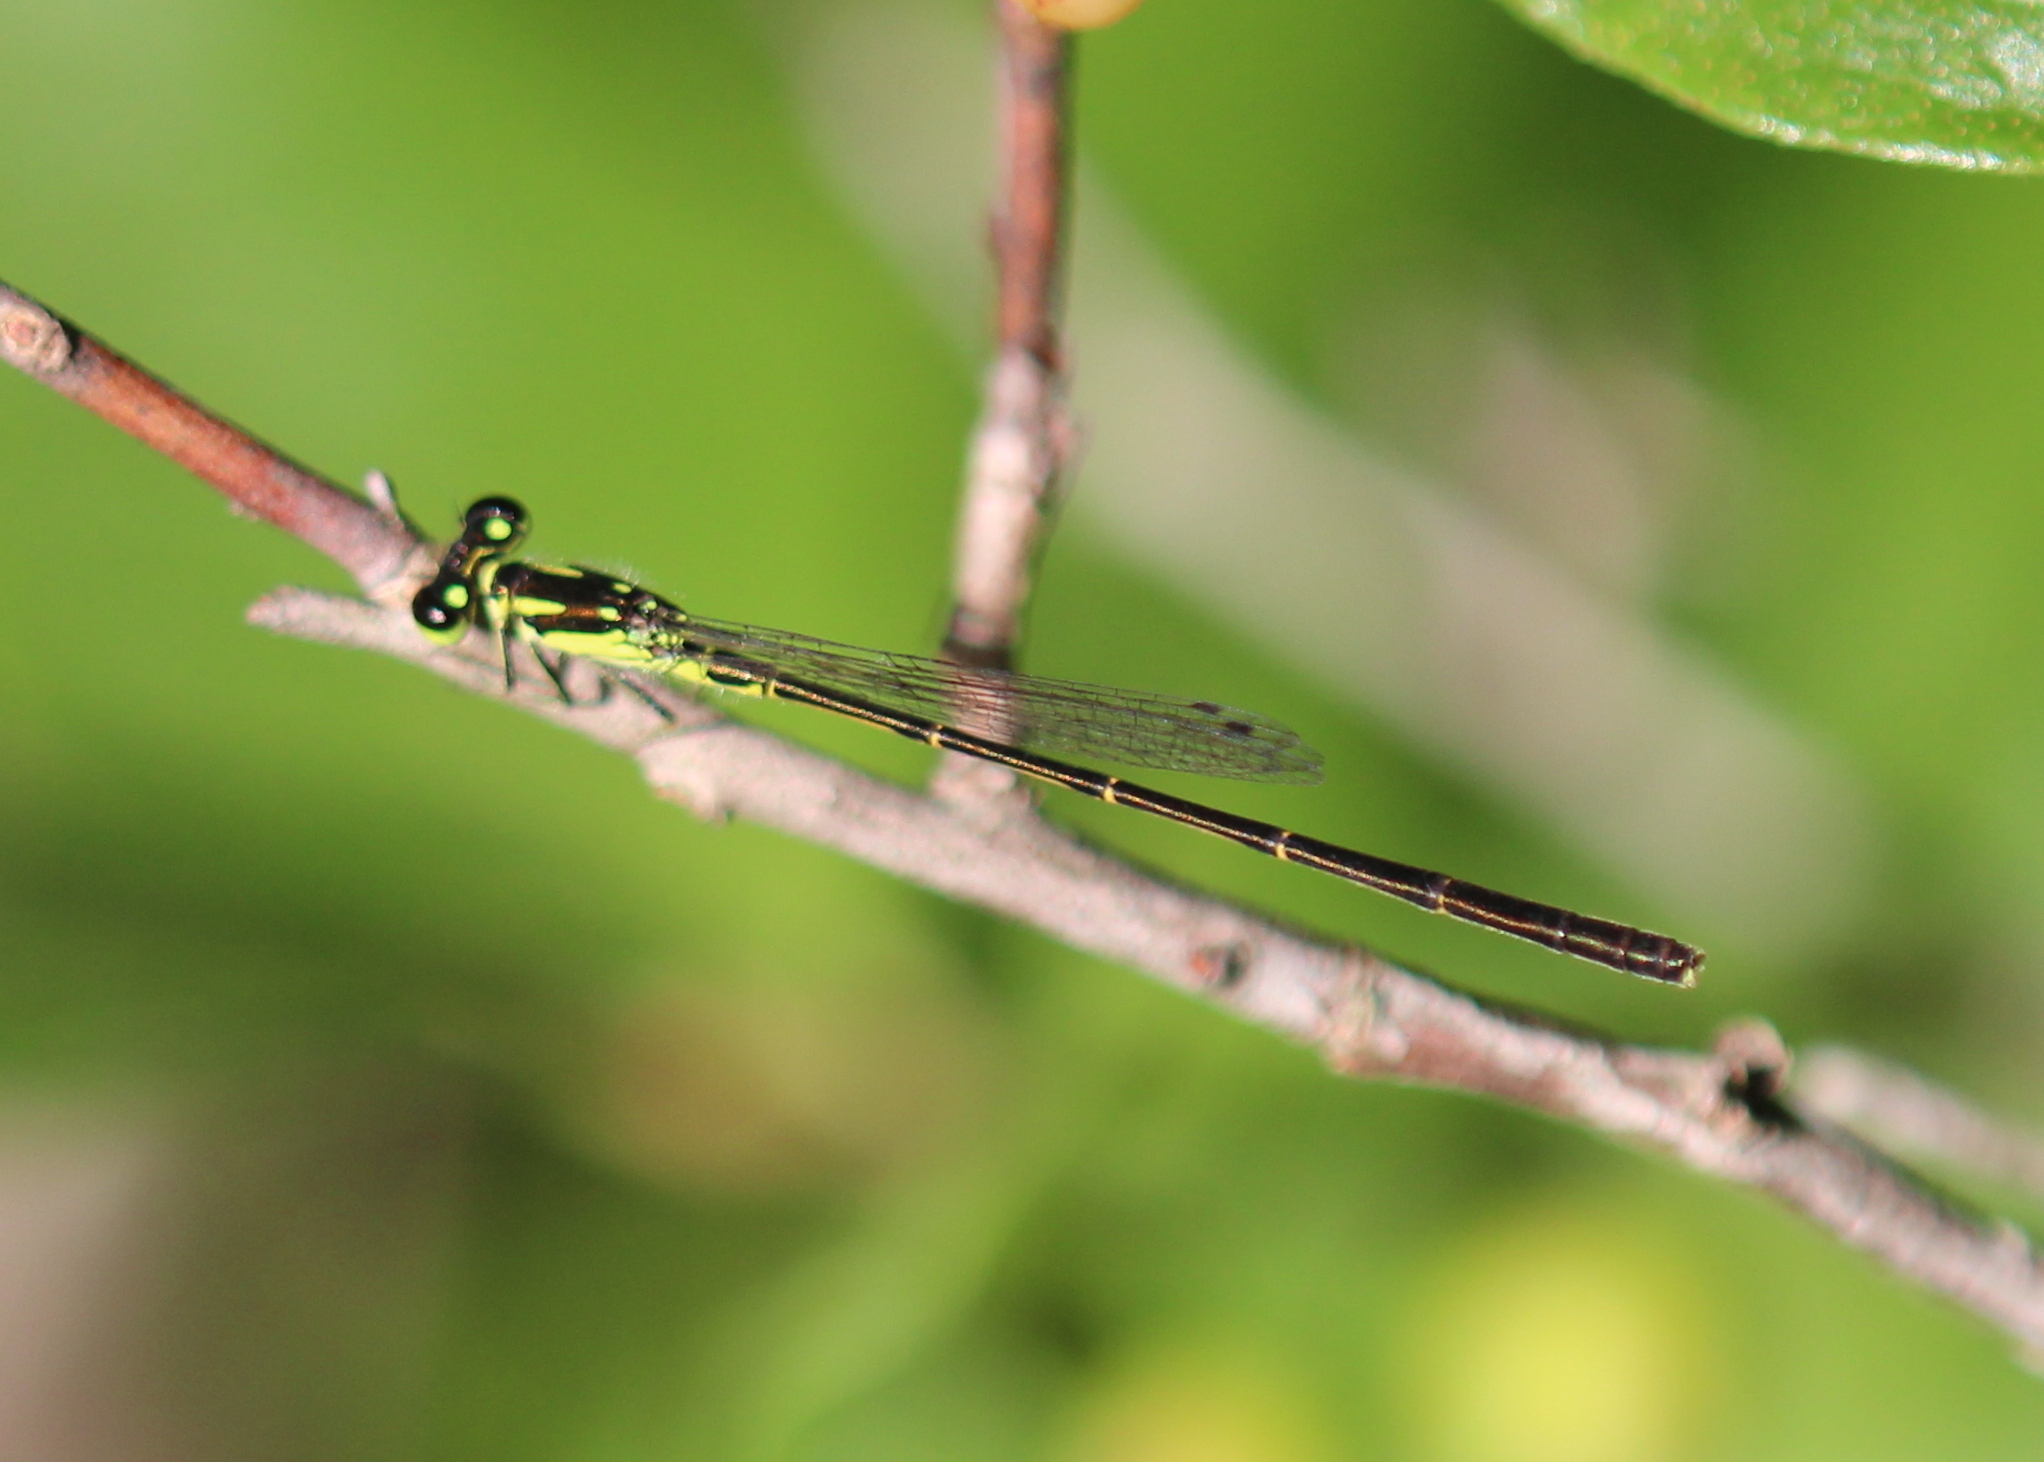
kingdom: Animalia
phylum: Arthropoda
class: Insecta
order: Odonata
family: Coenagrionidae
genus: Ischnura
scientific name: Ischnura posita
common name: Fragile forktail
